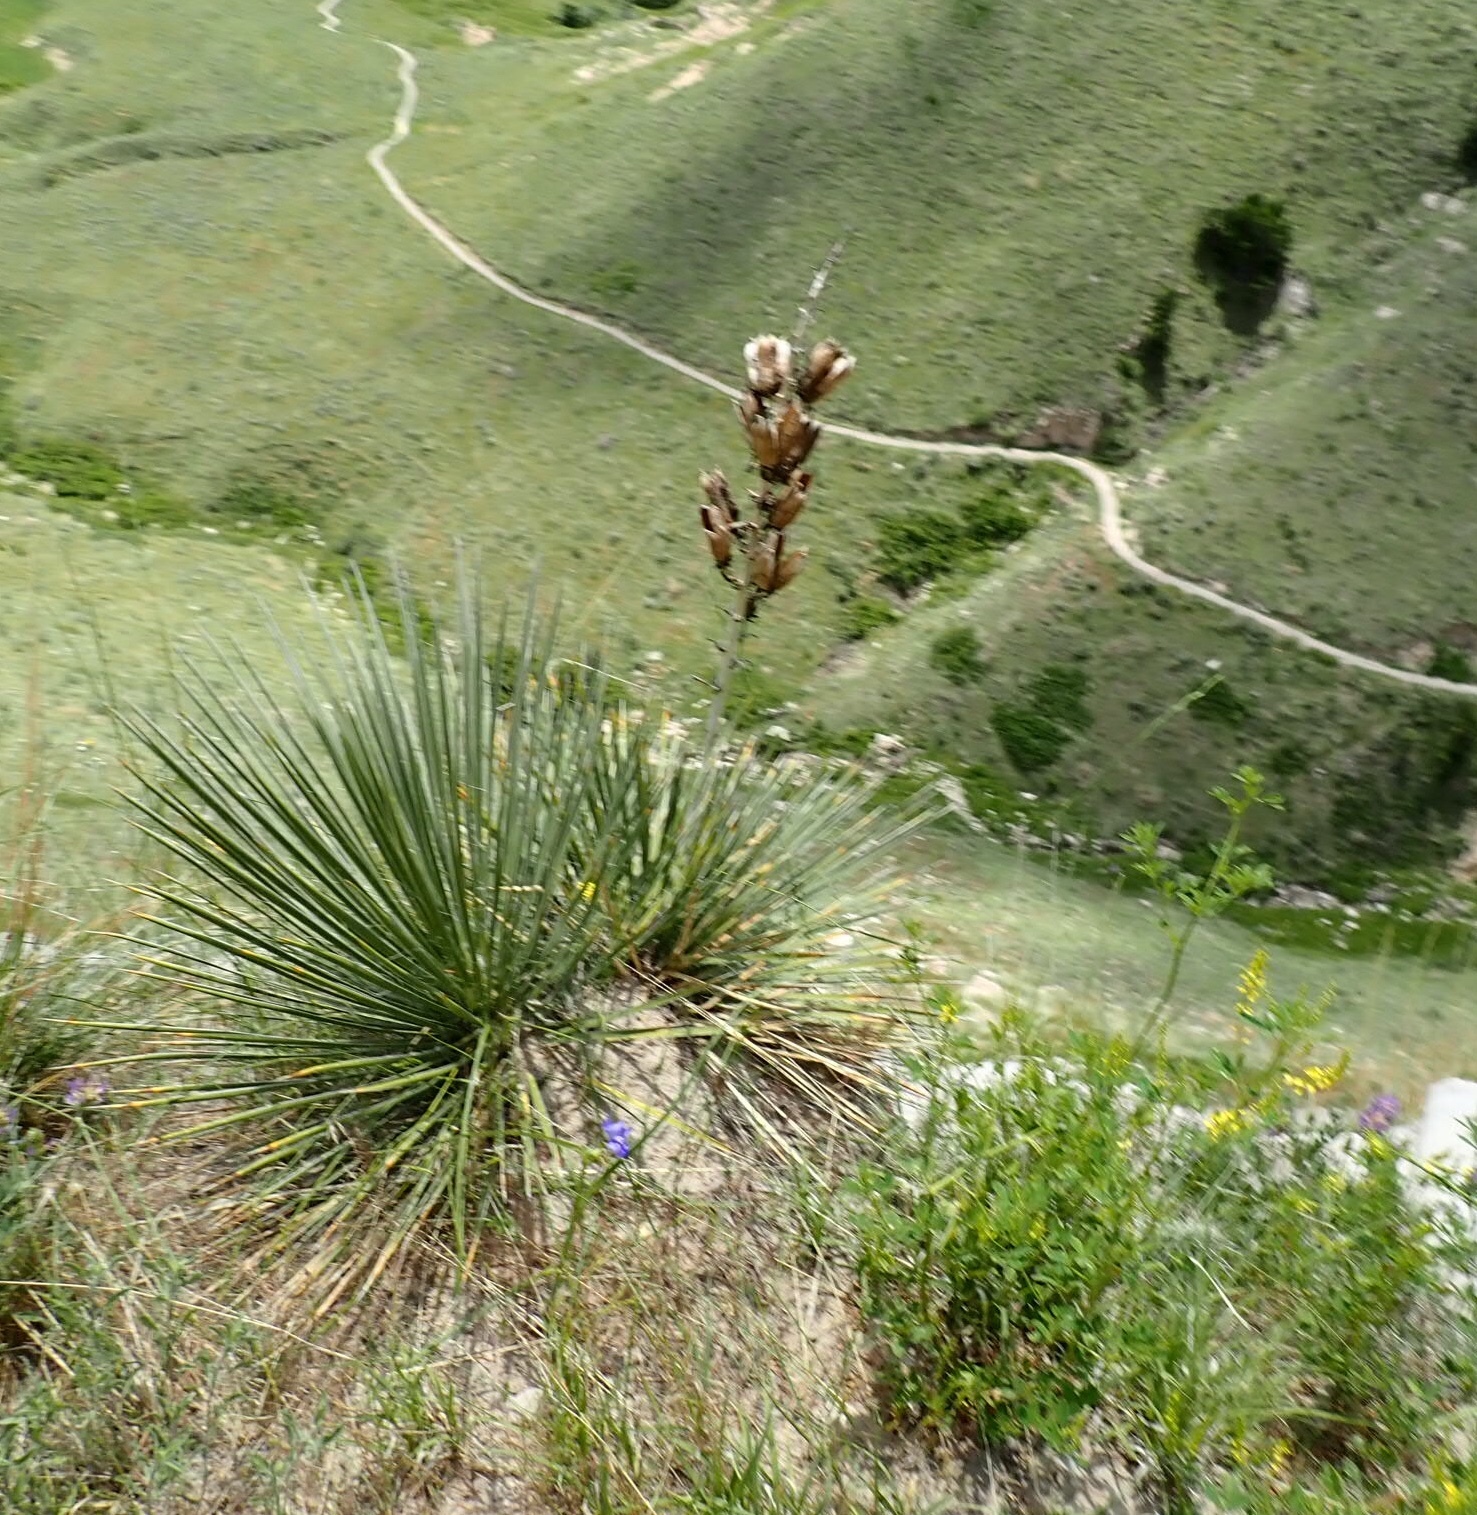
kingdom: Plantae
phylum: Tracheophyta
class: Liliopsida
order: Asparagales
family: Asparagaceae
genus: Yucca
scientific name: Yucca glauca
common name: Great plains yucca
